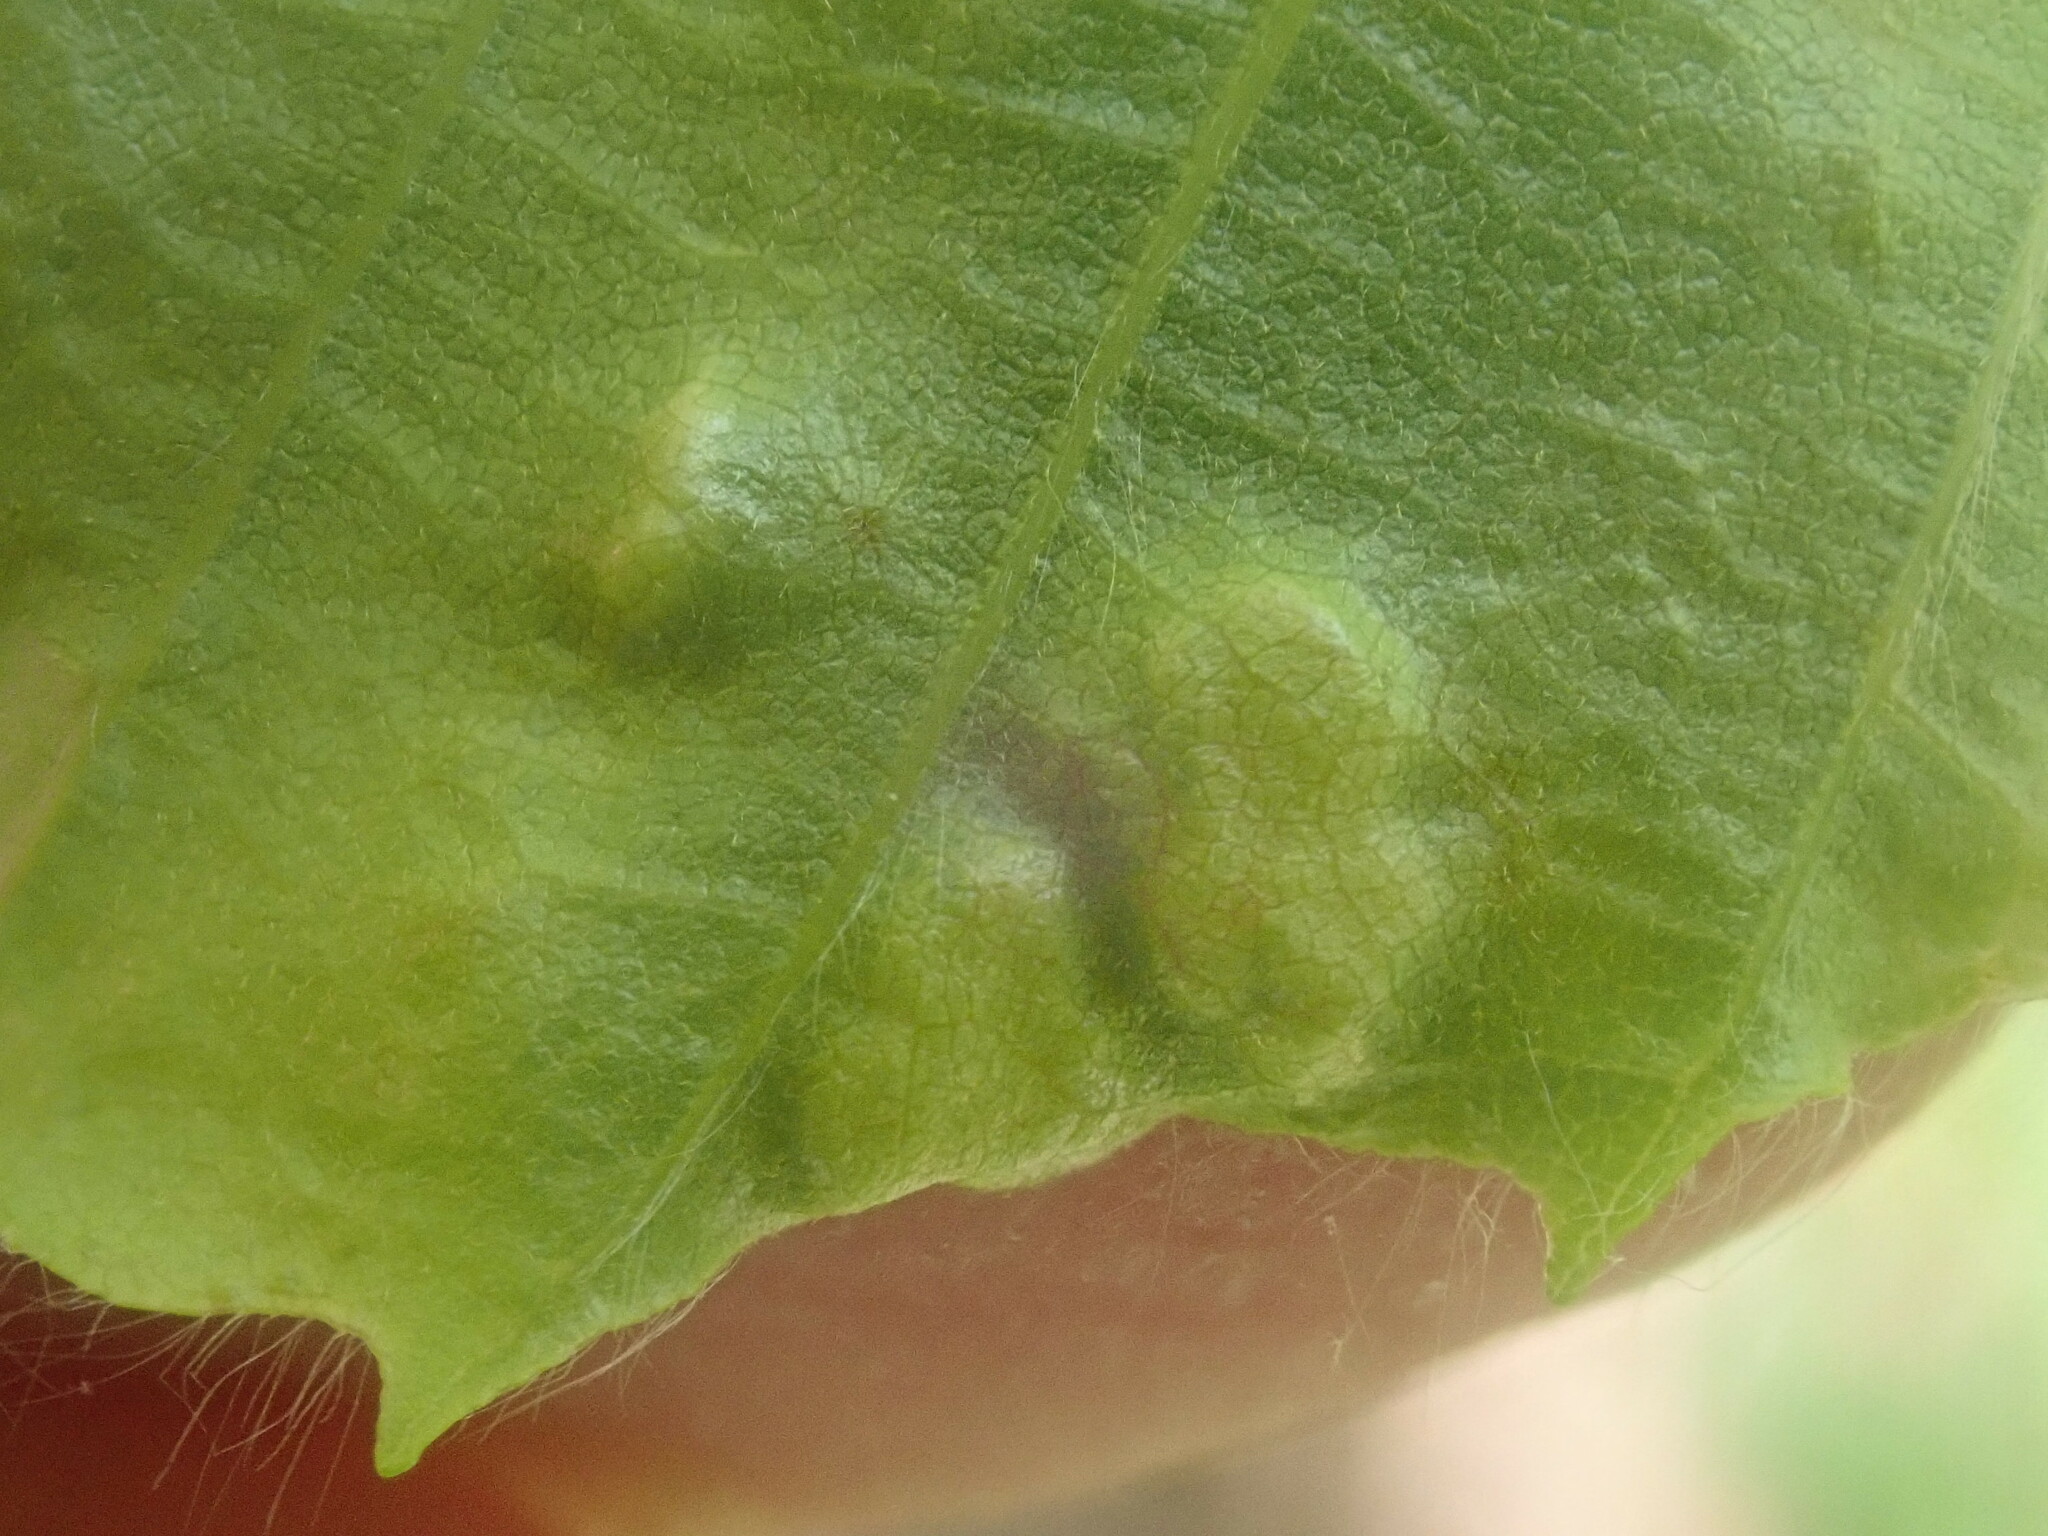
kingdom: Animalia
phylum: Arthropoda
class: Arachnida
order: Trombidiformes
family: Eriophyidae
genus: Acalitus
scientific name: Acalitus
